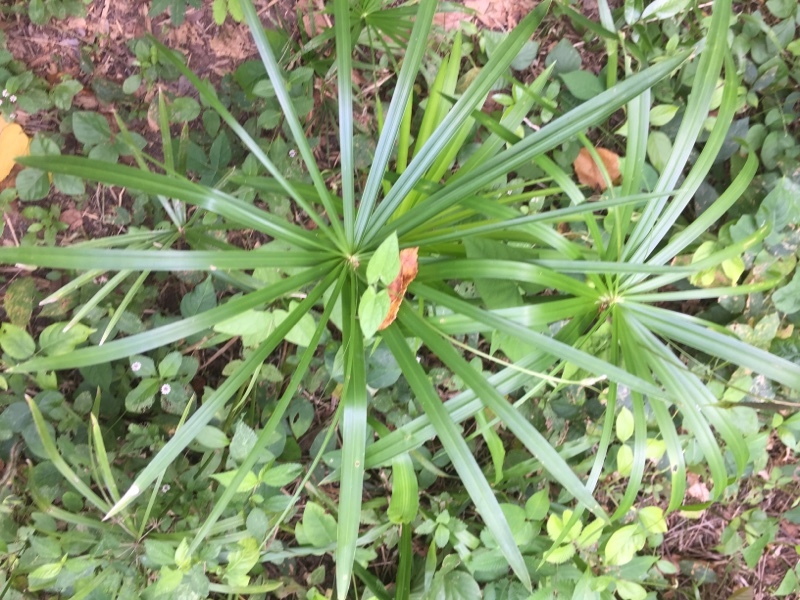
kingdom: Plantae
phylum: Tracheophyta
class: Liliopsida
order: Poales
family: Cyperaceae
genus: Cyperus
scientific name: Cyperus alternifolius
